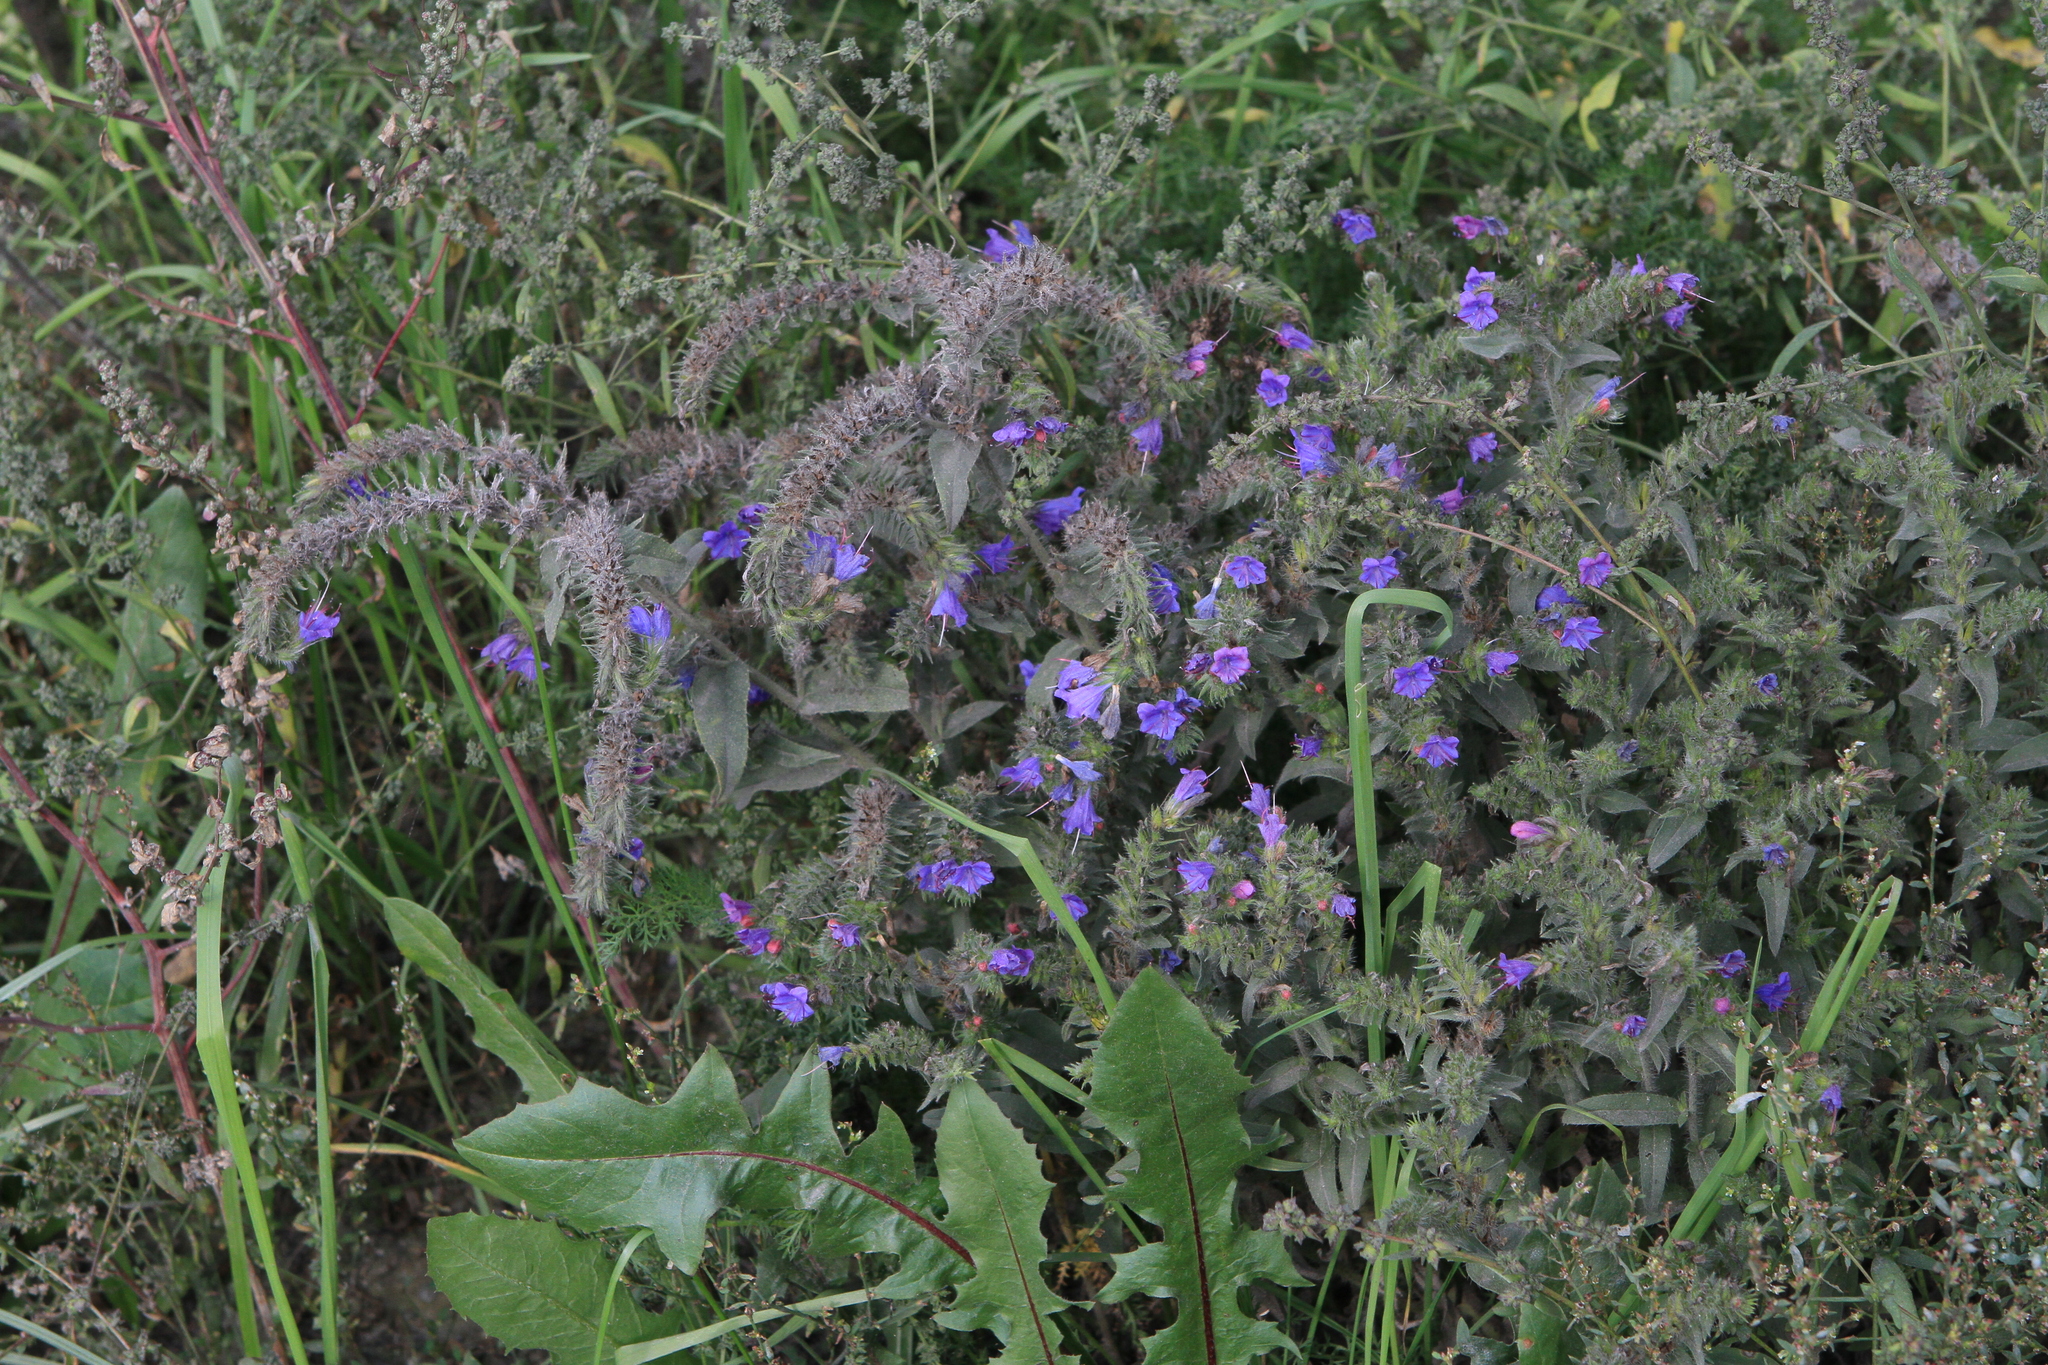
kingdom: Plantae
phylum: Tracheophyta
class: Magnoliopsida
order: Boraginales
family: Boraginaceae
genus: Echium
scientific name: Echium vulgare
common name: Common viper's bugloss
